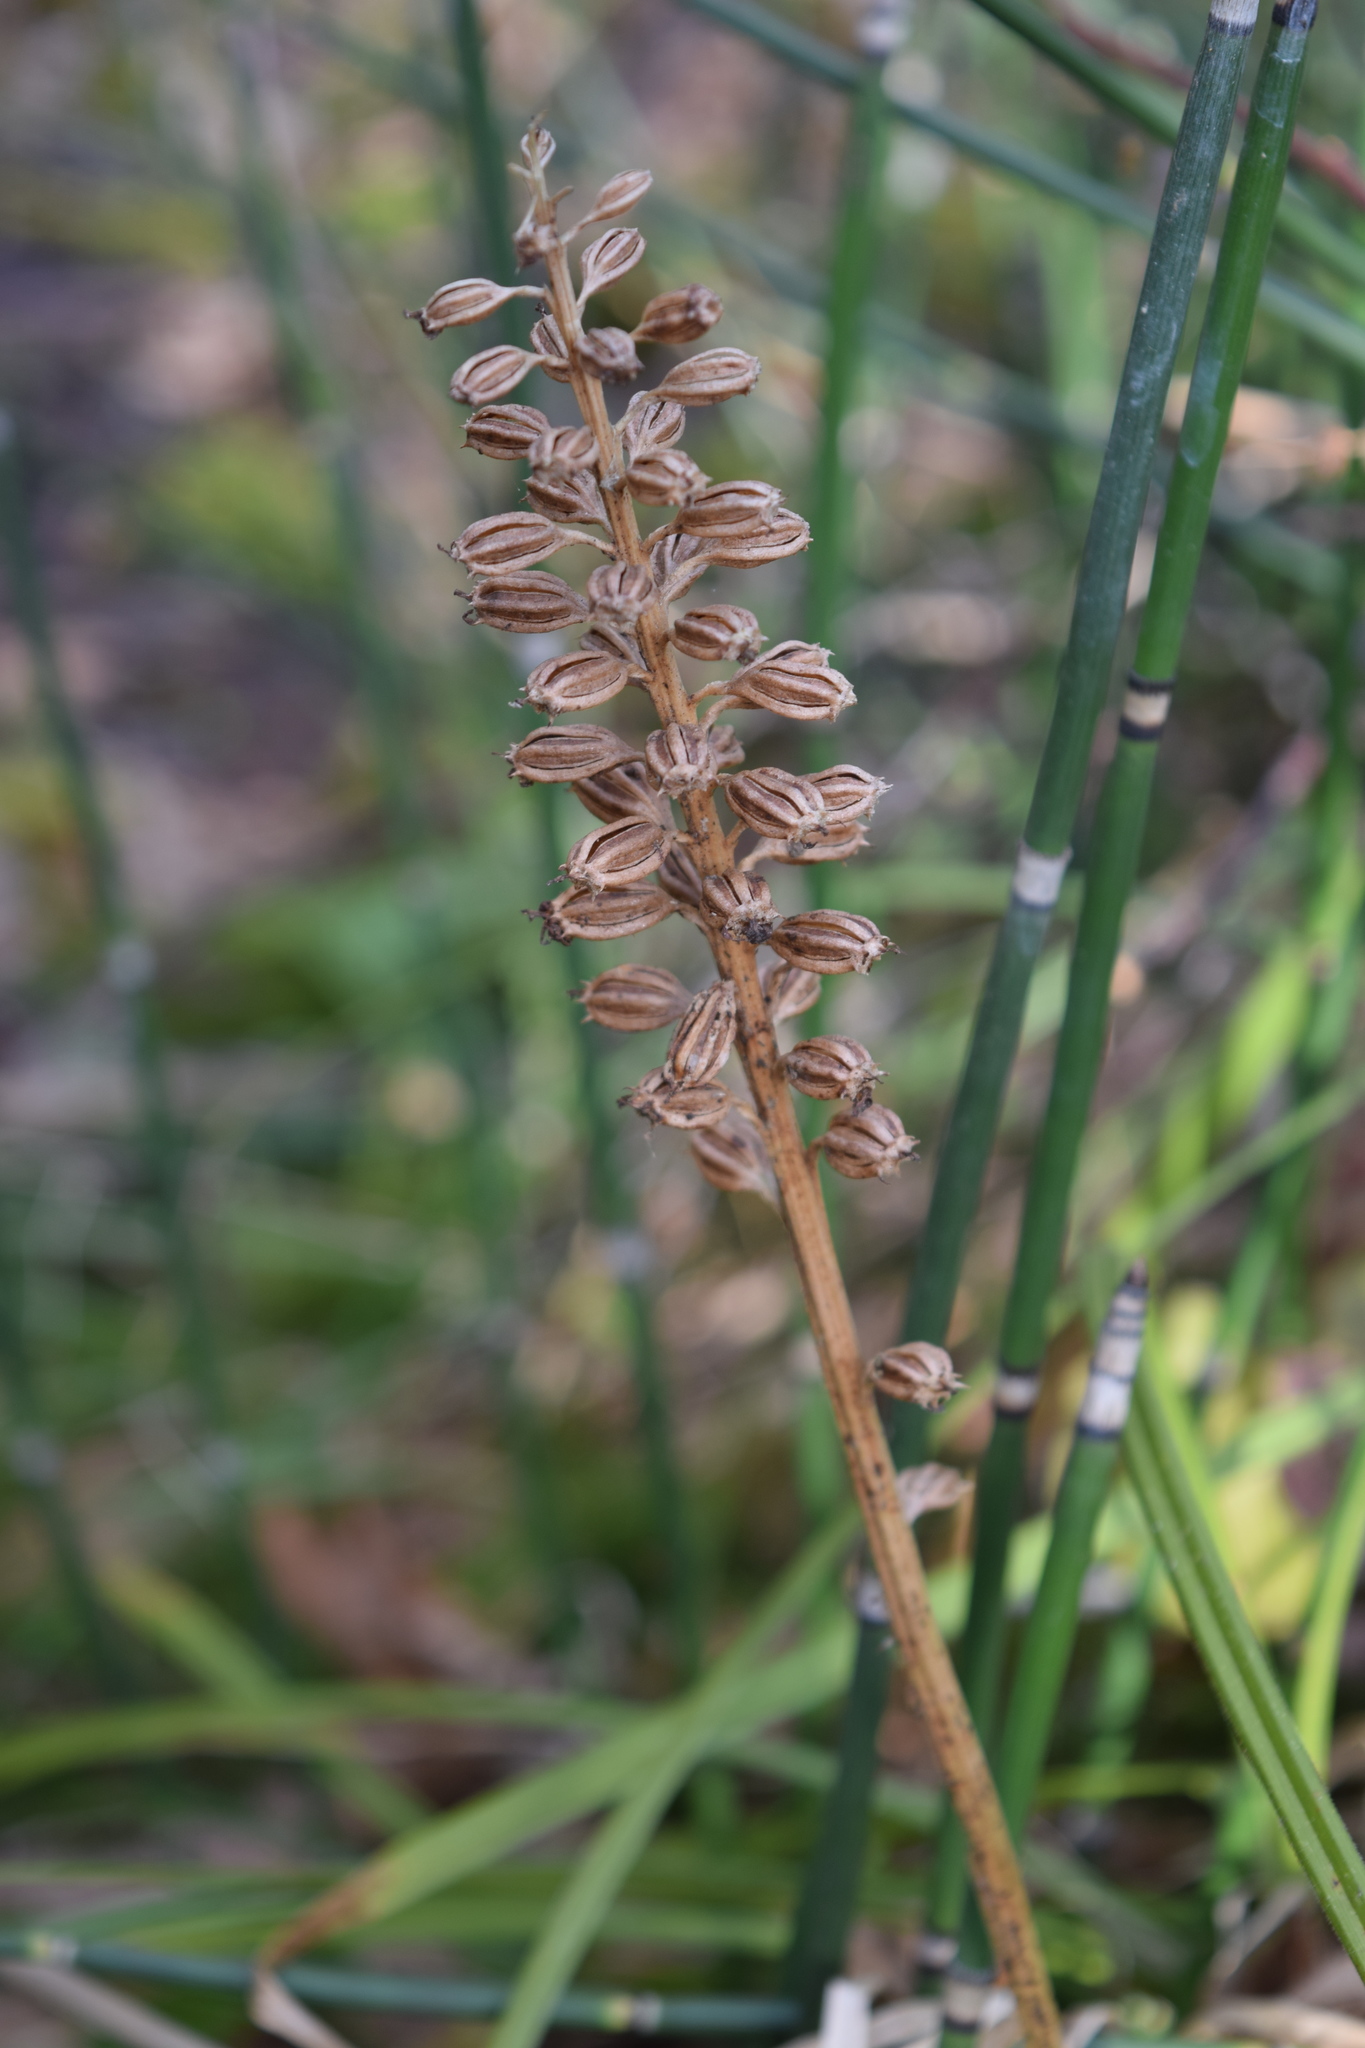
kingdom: Plantae
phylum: Tracheophyta
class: Liliopsida
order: Asparagales
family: Orchidaceae
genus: Neottia
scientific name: Neottia nidus-avis
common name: Bird's-nest orchid
